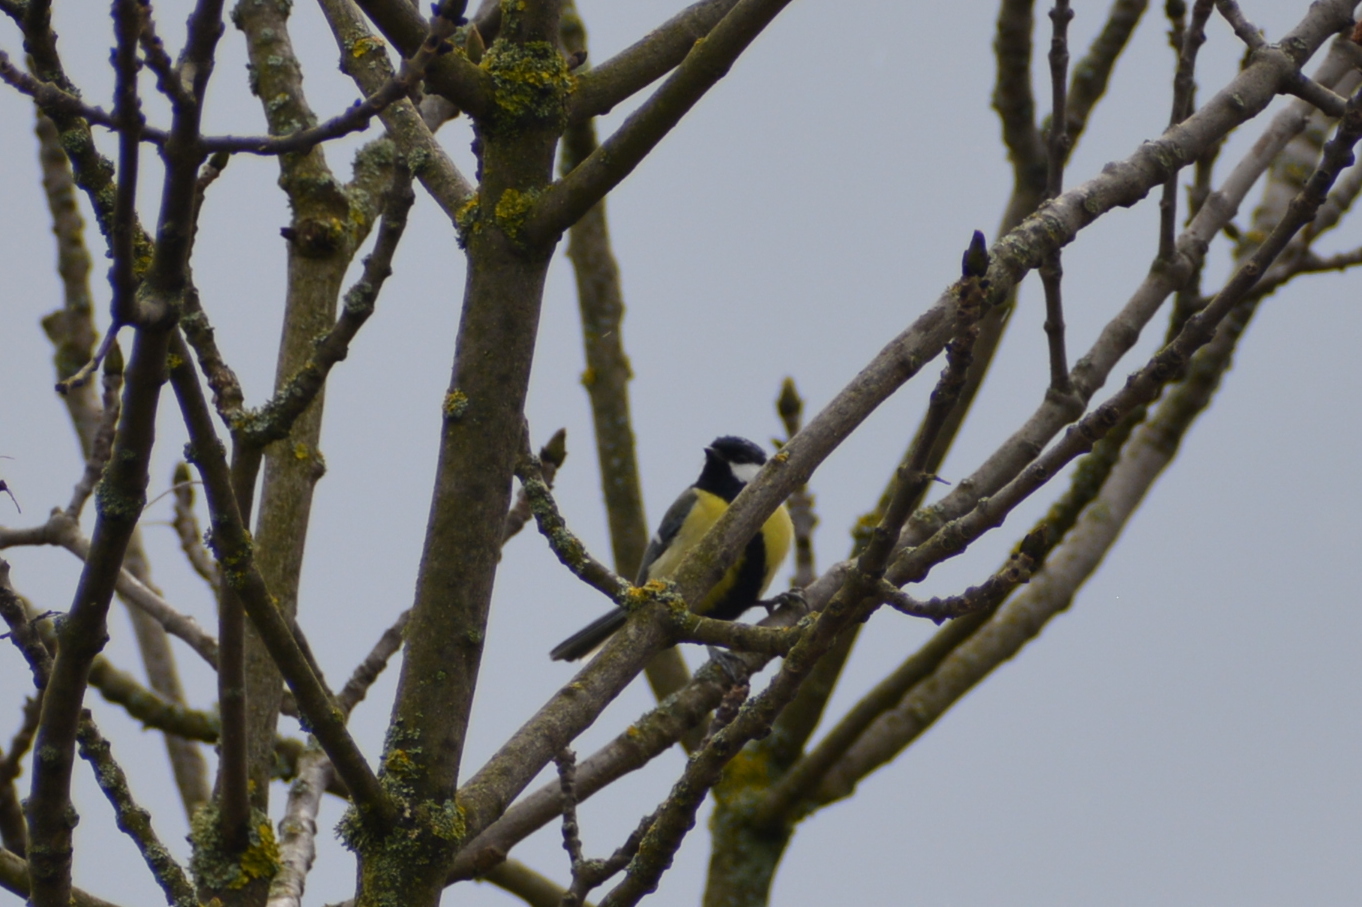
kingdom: Animalia
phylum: Chordata
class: Aves
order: Passeriformes
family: Paridae
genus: Parus
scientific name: Parus major
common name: Great tit
